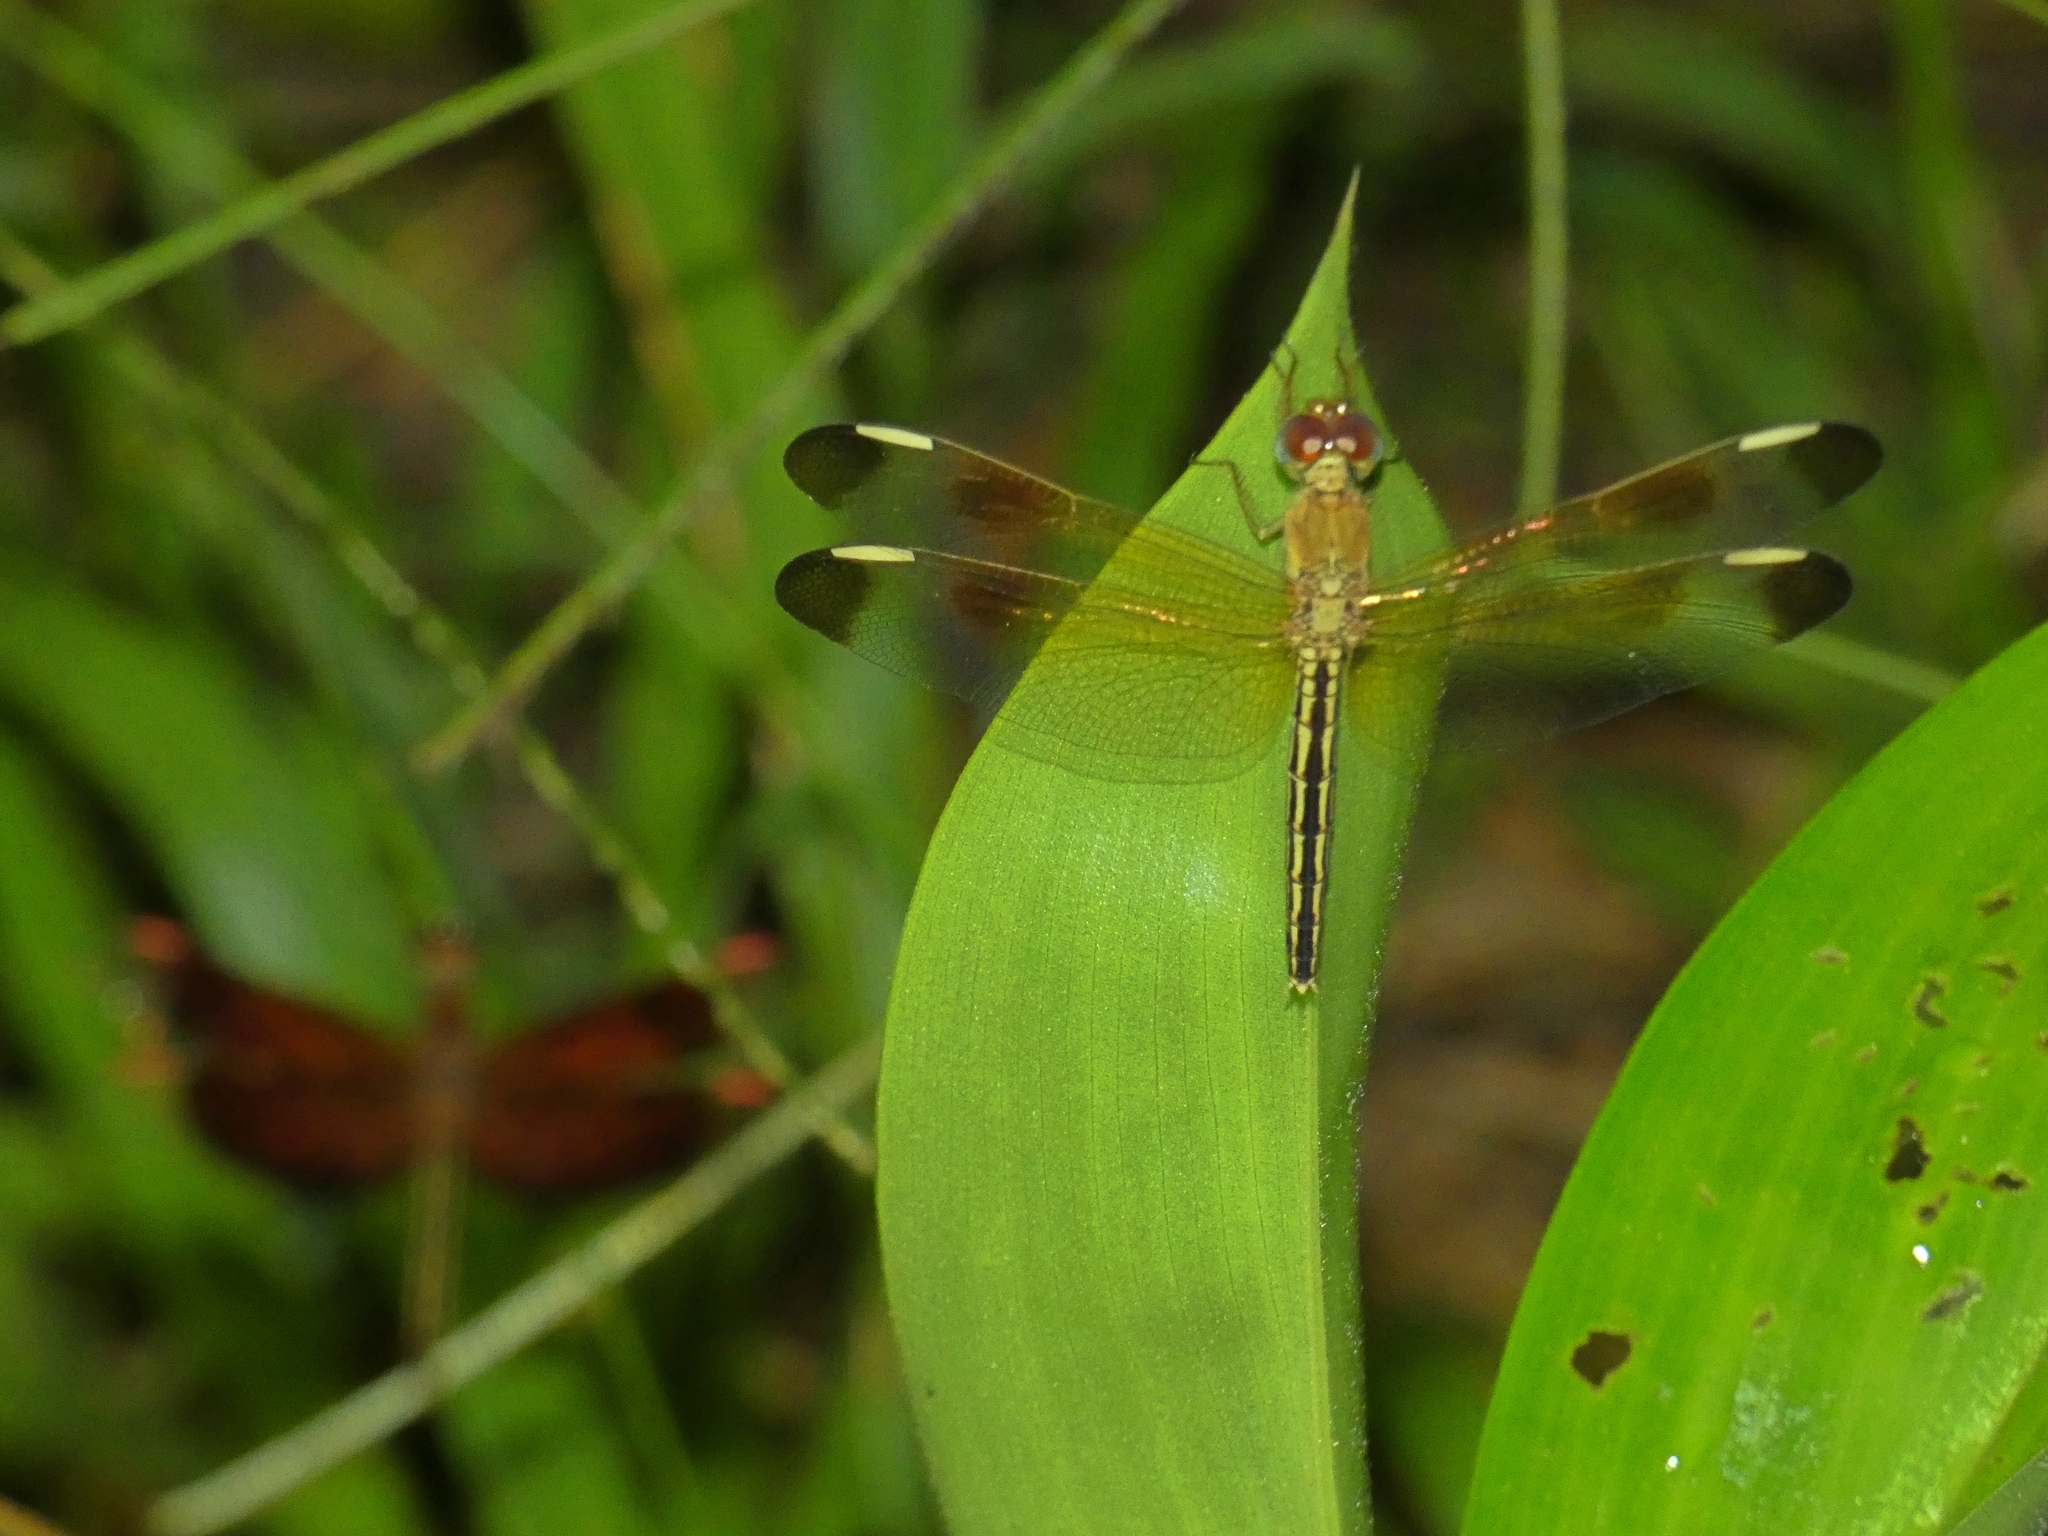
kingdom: Animalia
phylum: Arthropoda
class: Insecta
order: Odonata
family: Libellulidae
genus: Neurothemis
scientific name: Neurothemis stigmatizans
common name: Painted grasshawk
